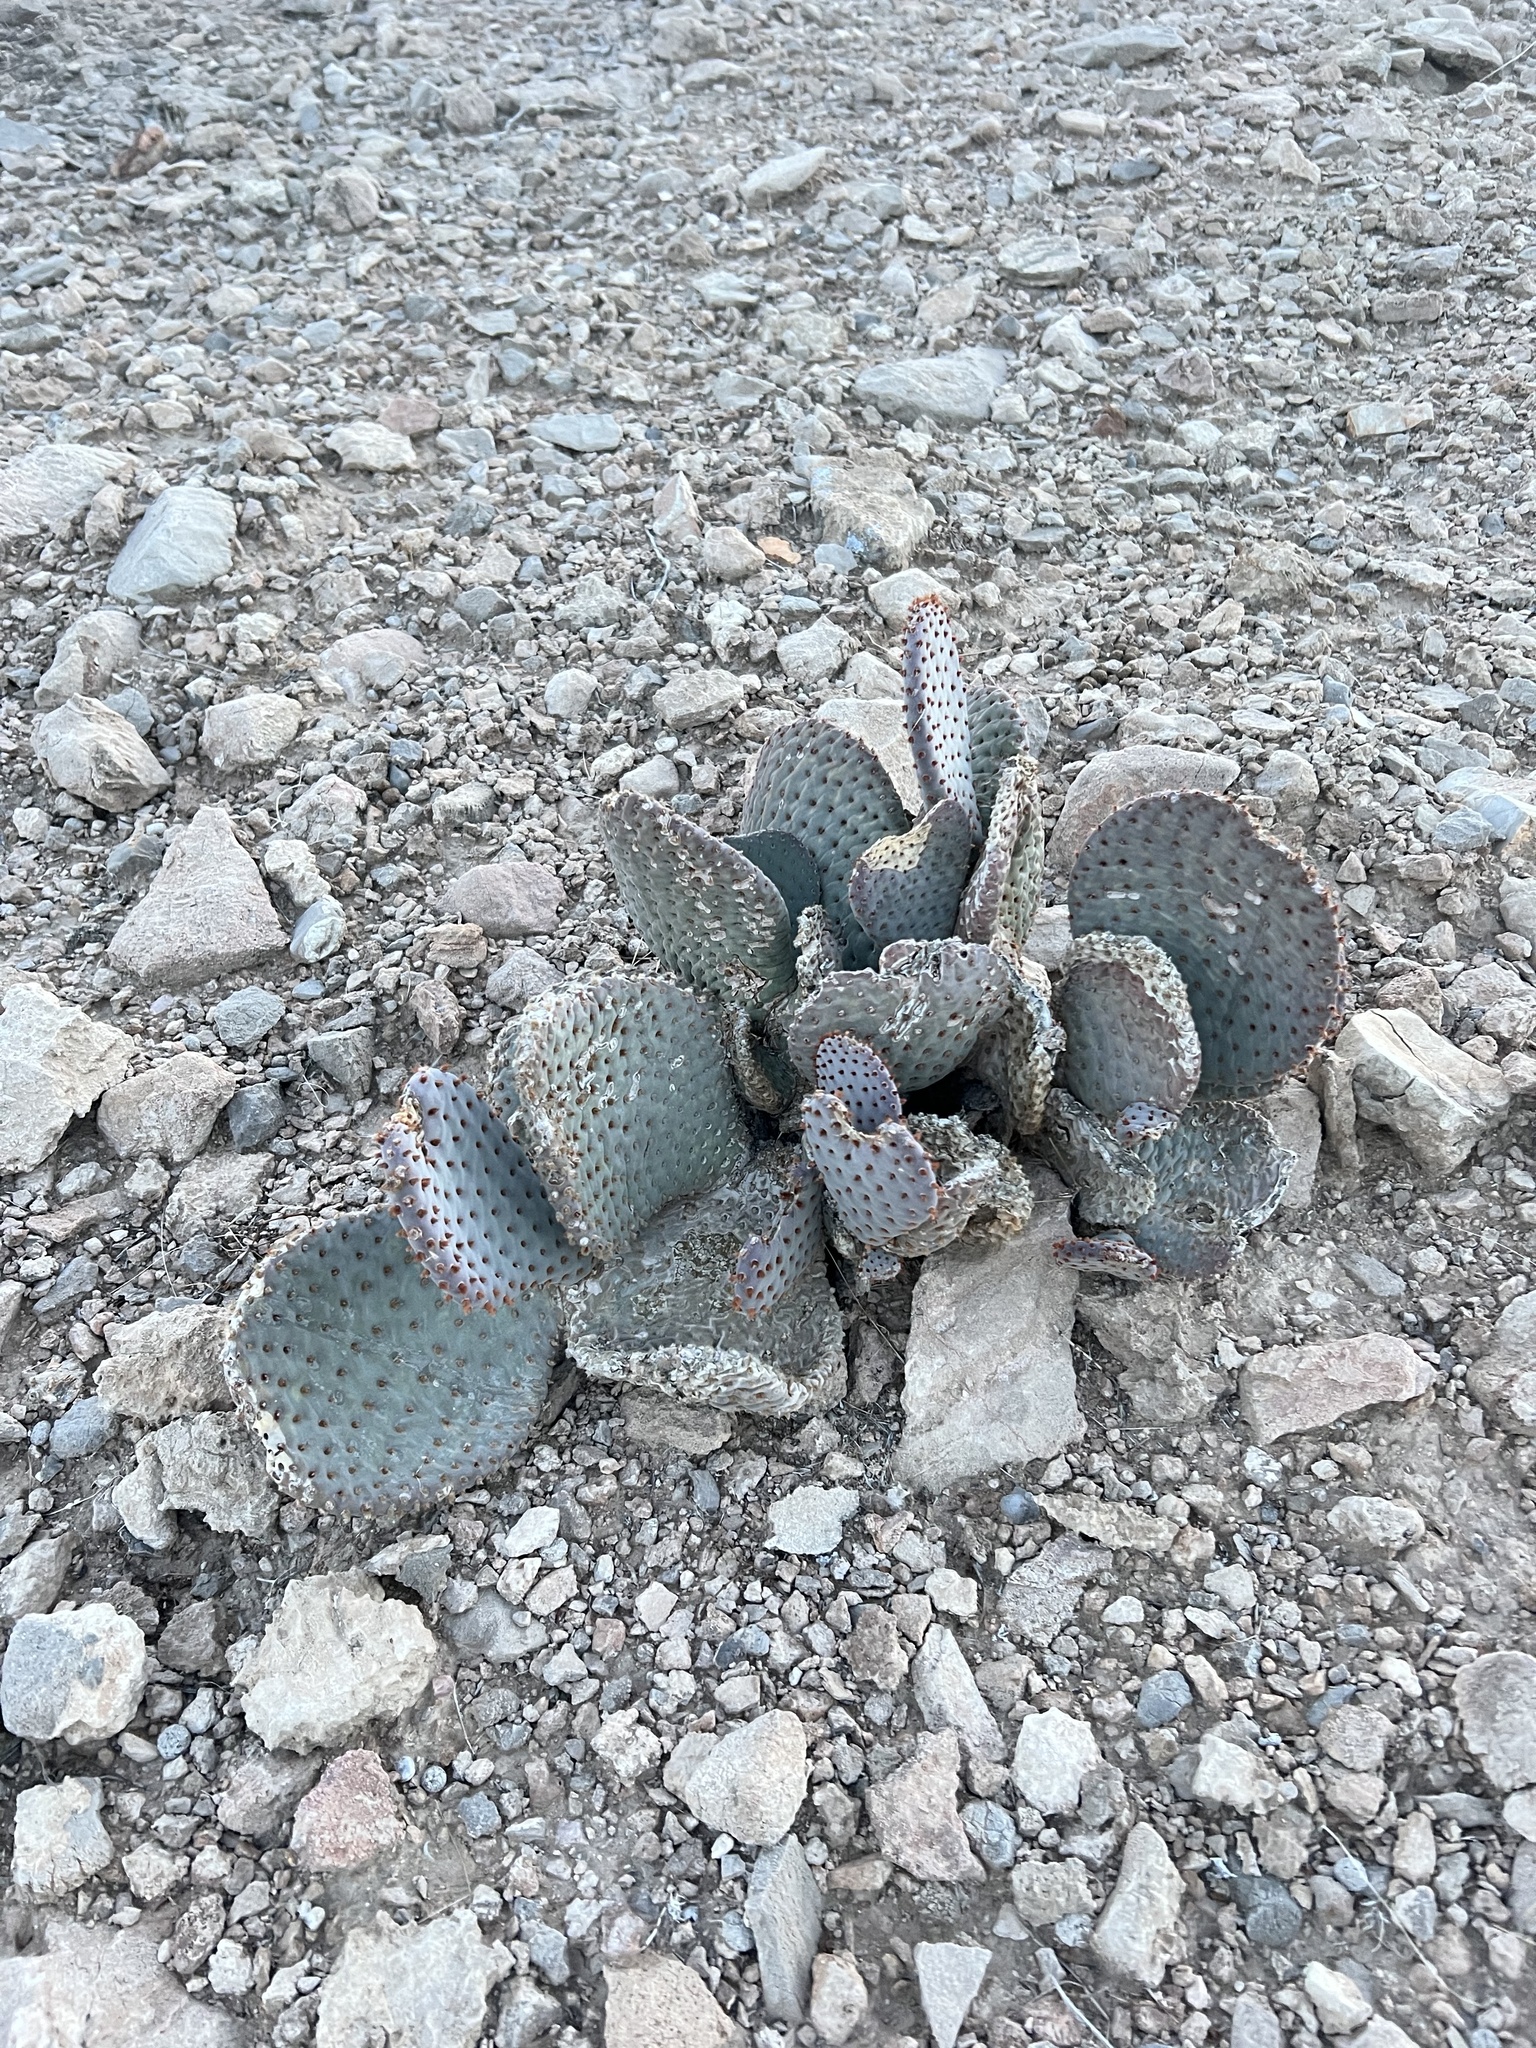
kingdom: Plantae
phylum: Tracheophyta
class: Magnoliopsida
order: Caryophyllales
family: Cactaceae
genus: Opuntia
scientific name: Opuntia basilaris
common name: Beavertail prickly-pear
